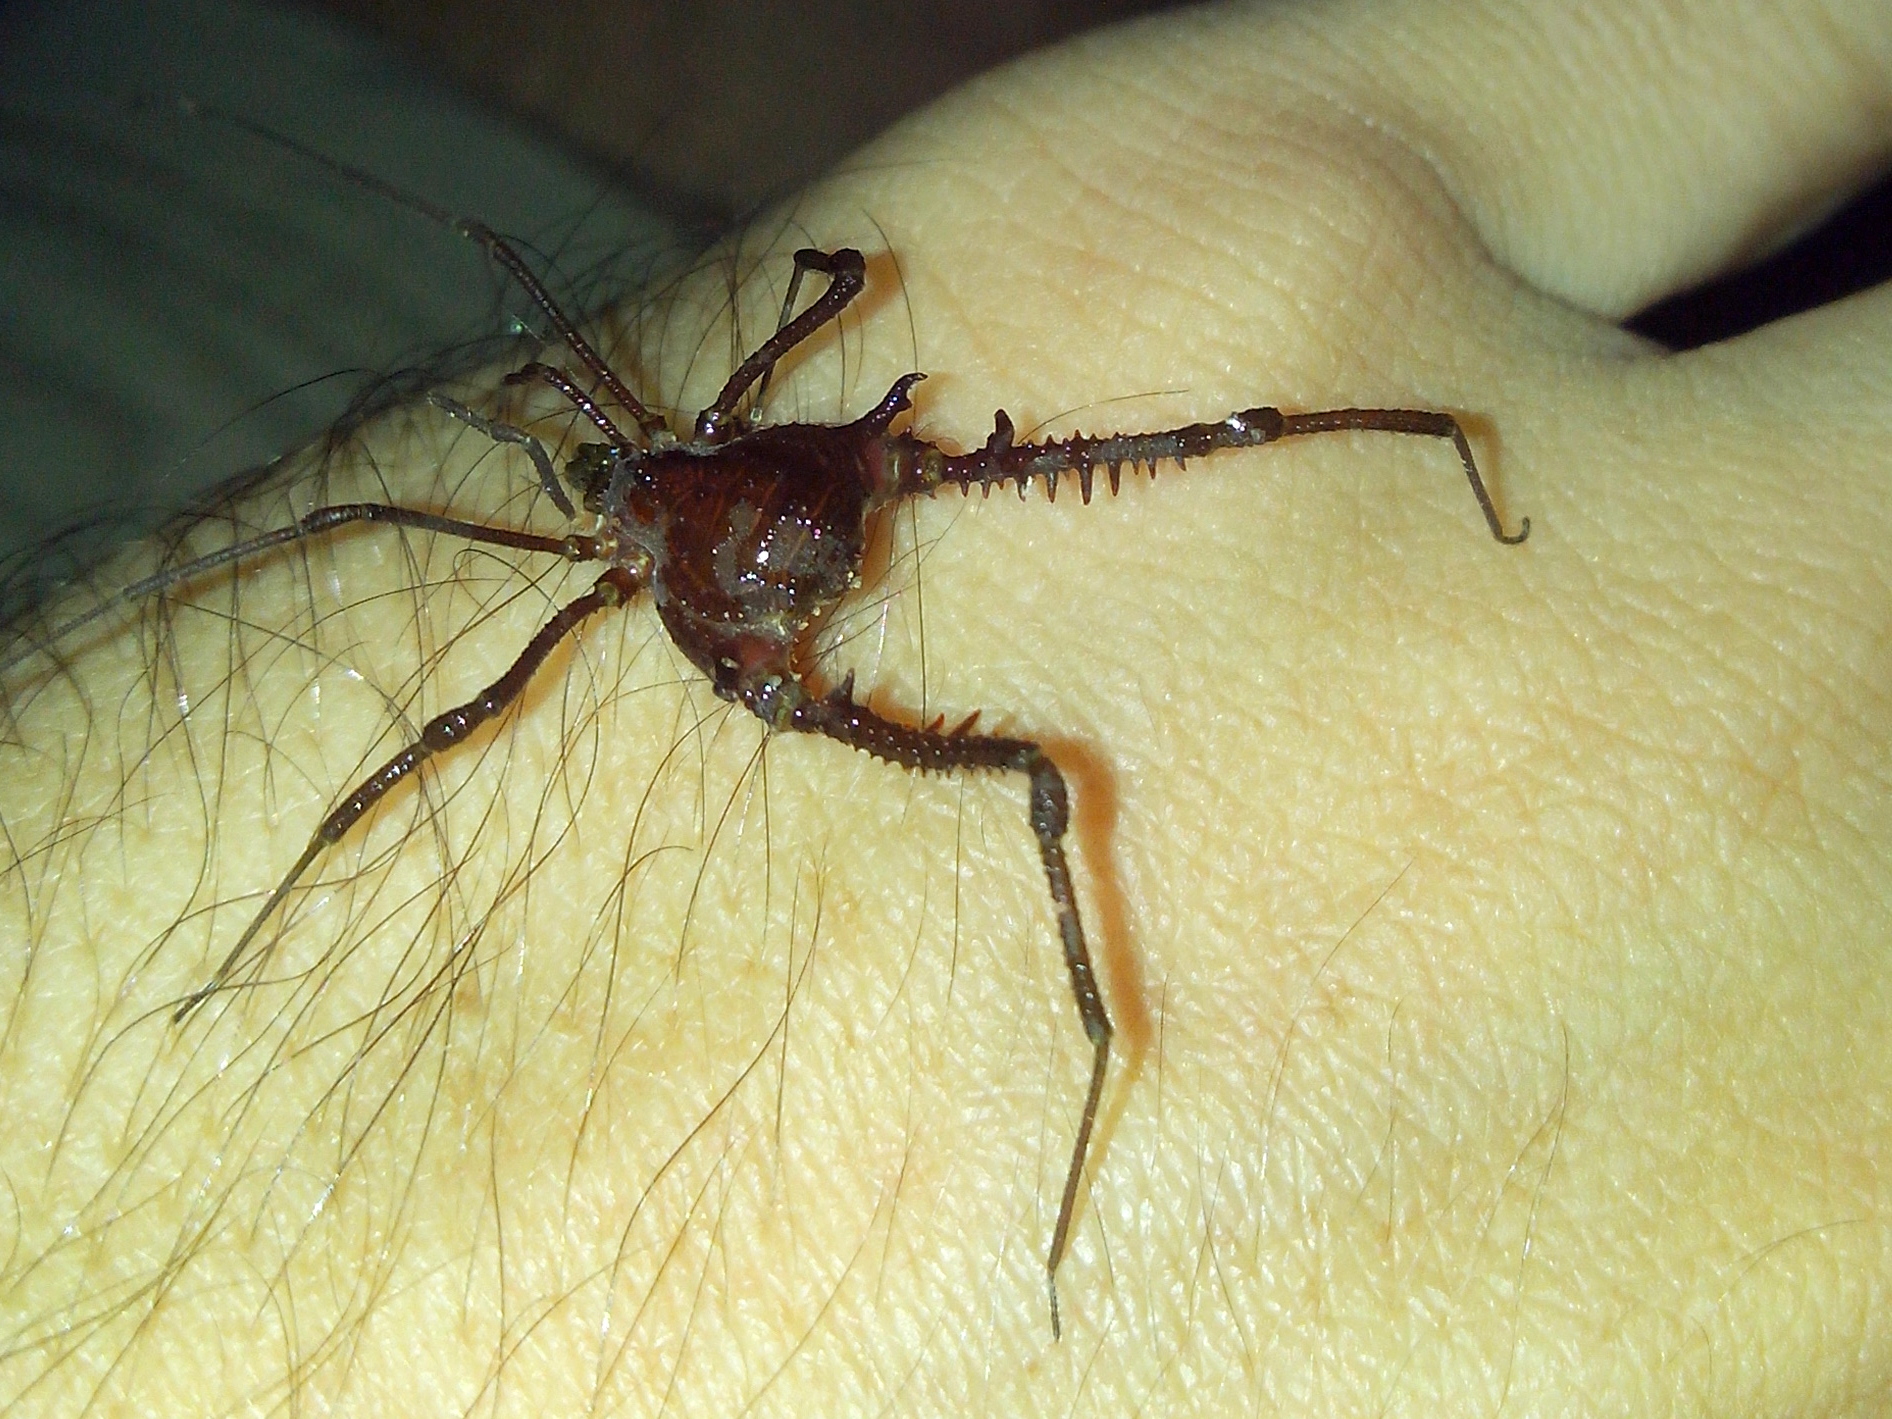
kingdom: Animalia
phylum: Arthropoda
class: Arachnida
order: Opiliones
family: Gonyleptidae
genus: Acrogonyleptes
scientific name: Acrogonyleptes pectinifemur
